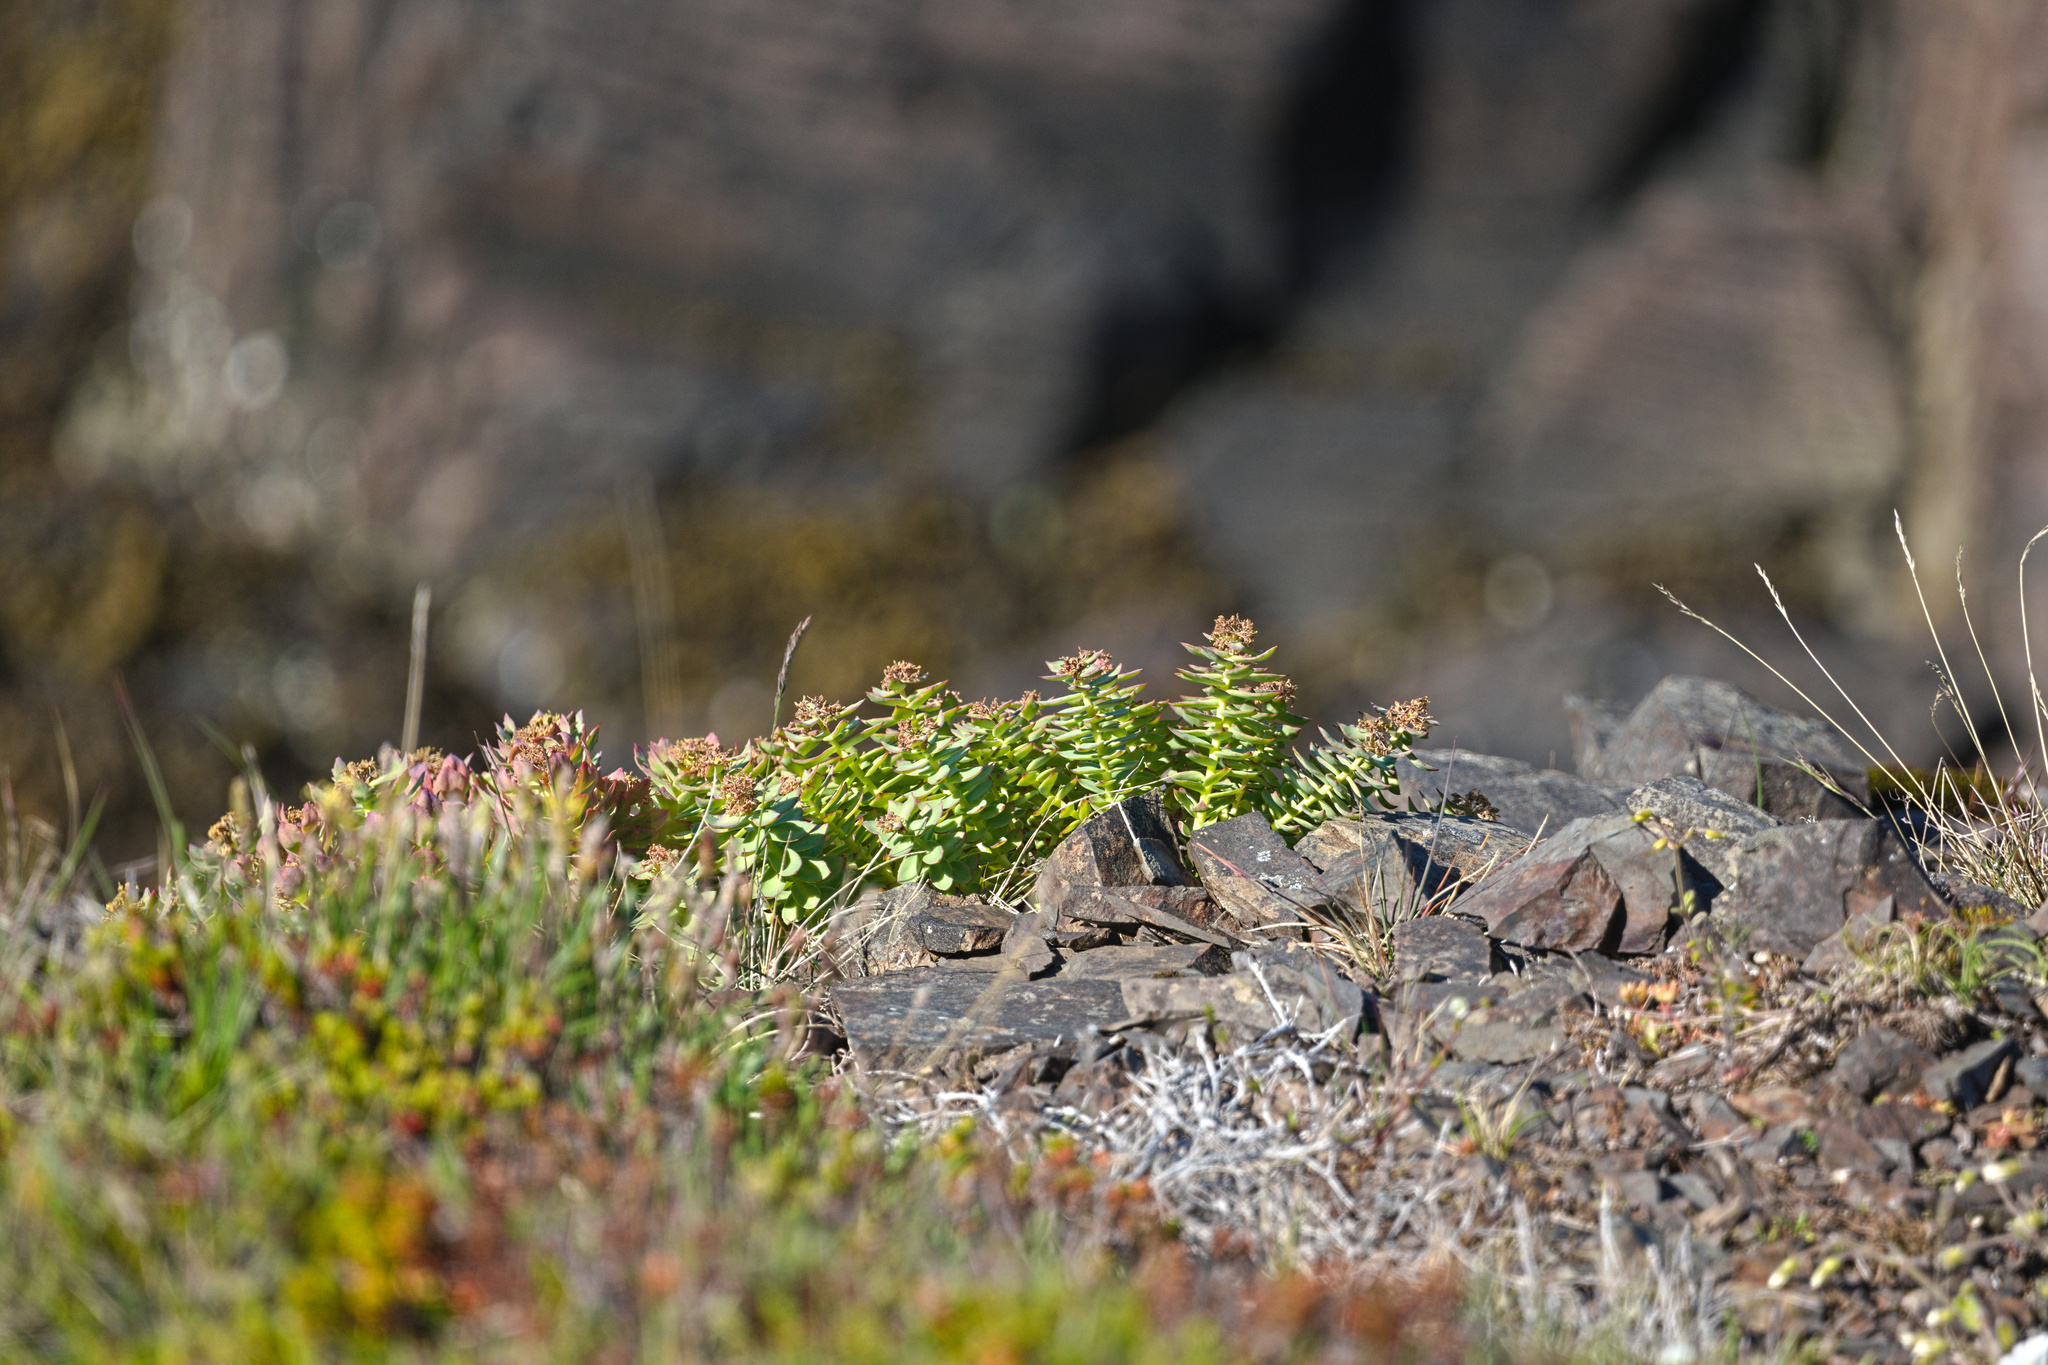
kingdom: Plantae
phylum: Tracheophyta
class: Magnoliopsida
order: Saxifragales
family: Crassulaceae
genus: Rhodiola
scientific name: Rhodiola rosea
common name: Roseroot
